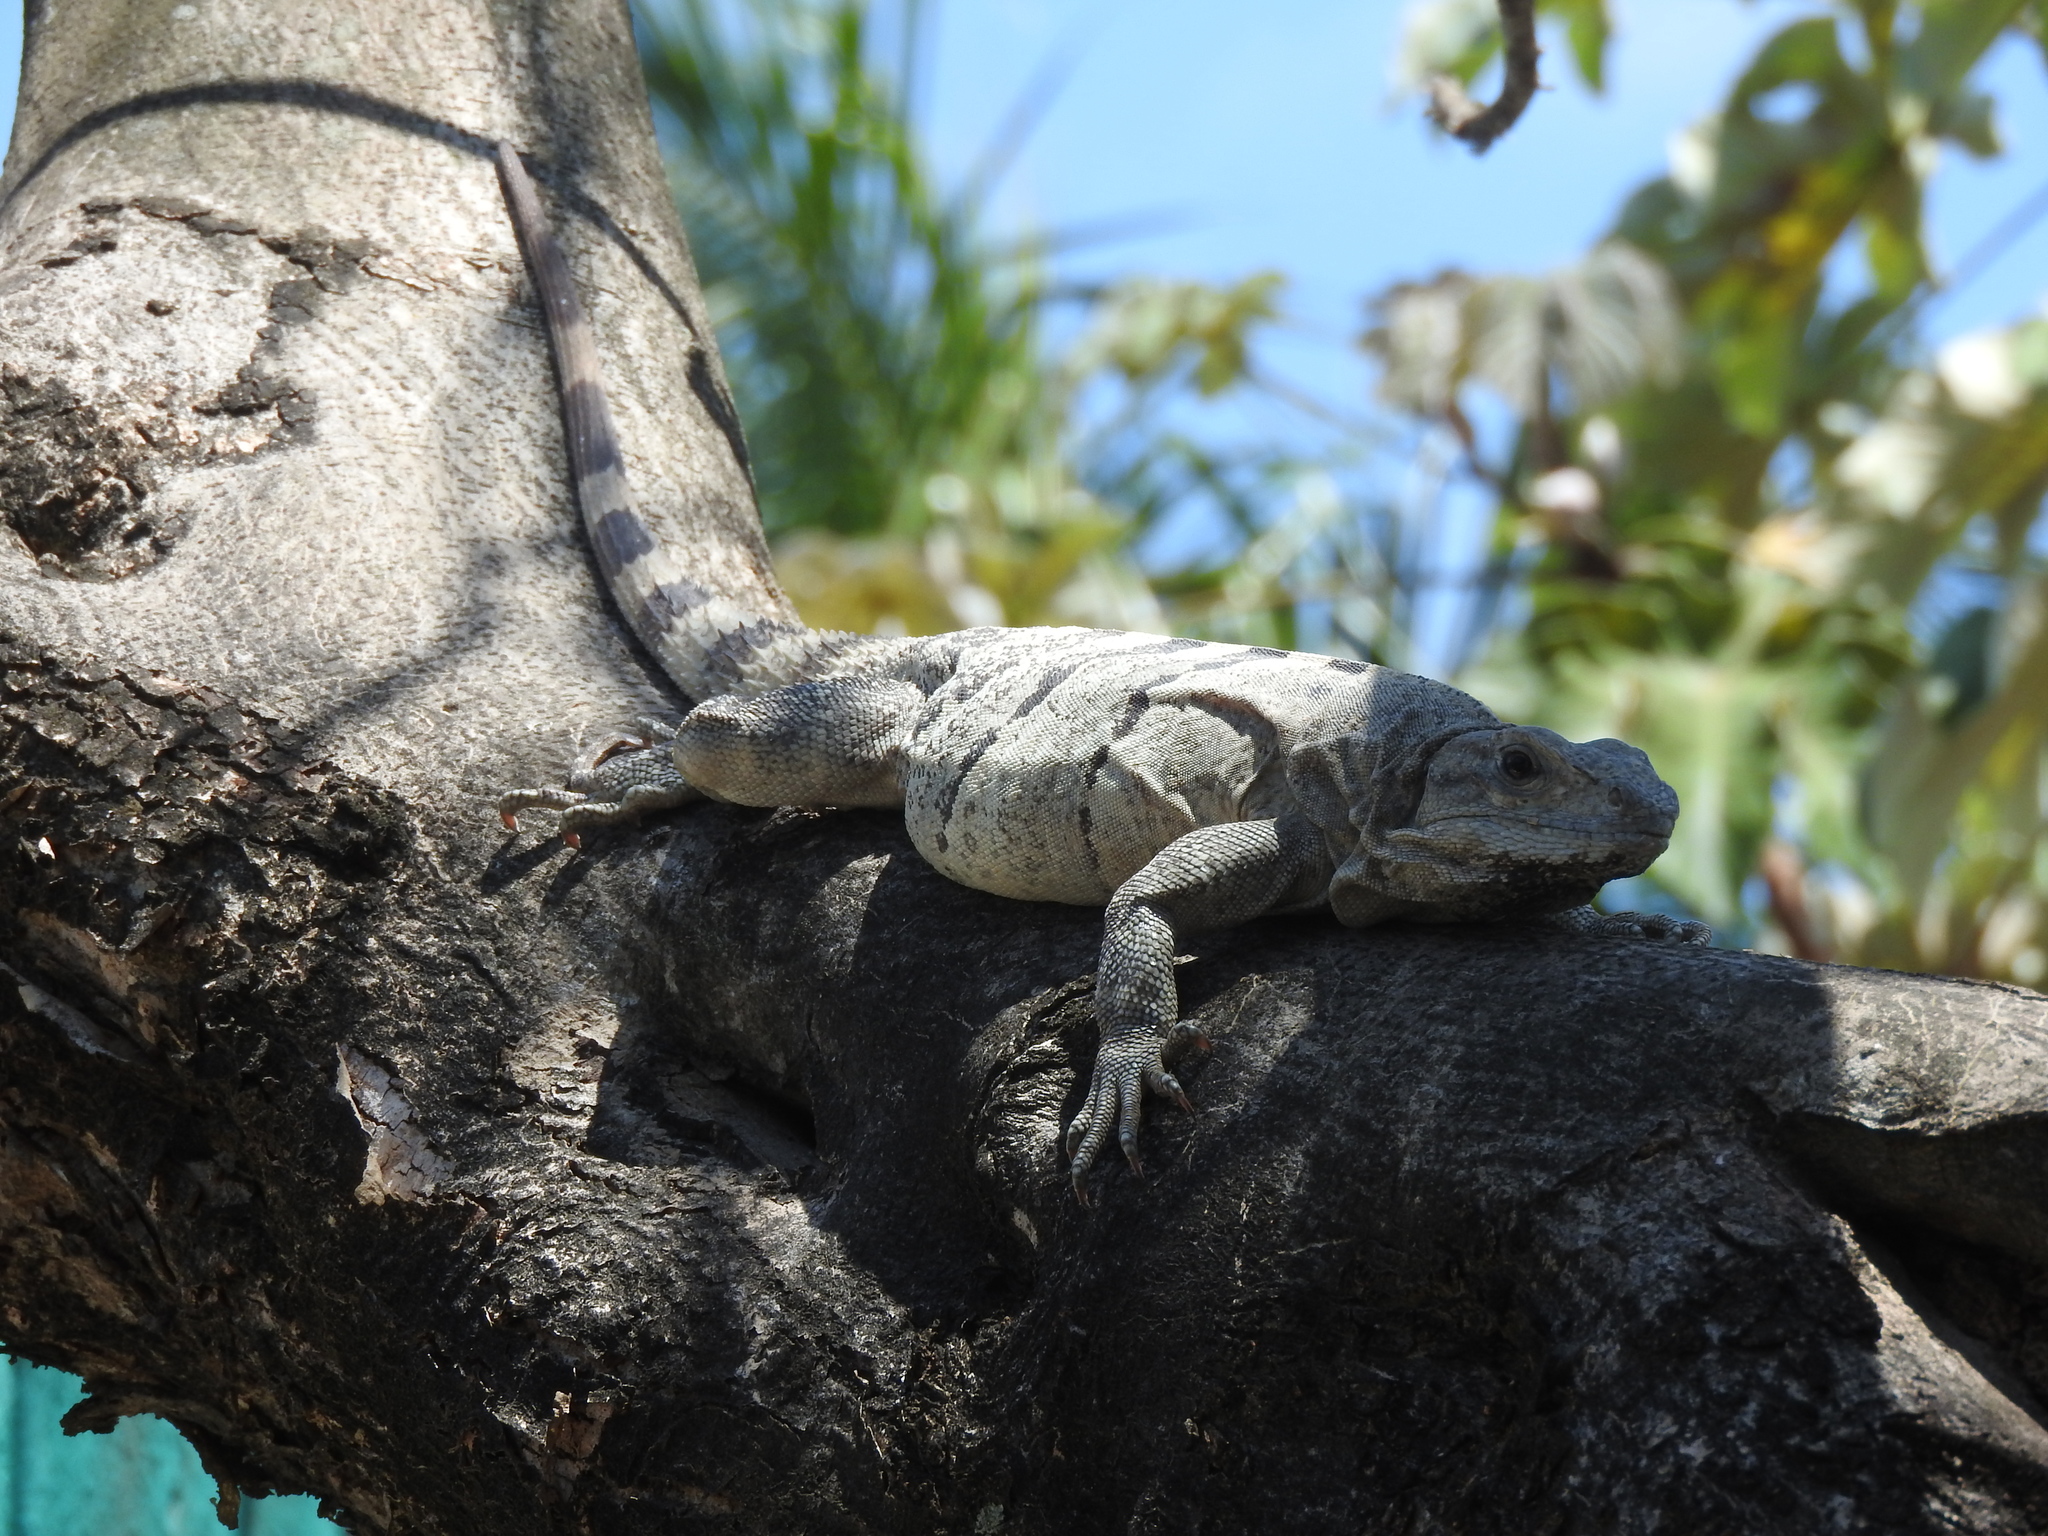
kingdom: Animalia
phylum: Chordata
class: Squamata
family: Iguanidae
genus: Ctenosaura
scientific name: Ctenosaura similis
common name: Black spiny-tailed iguana
